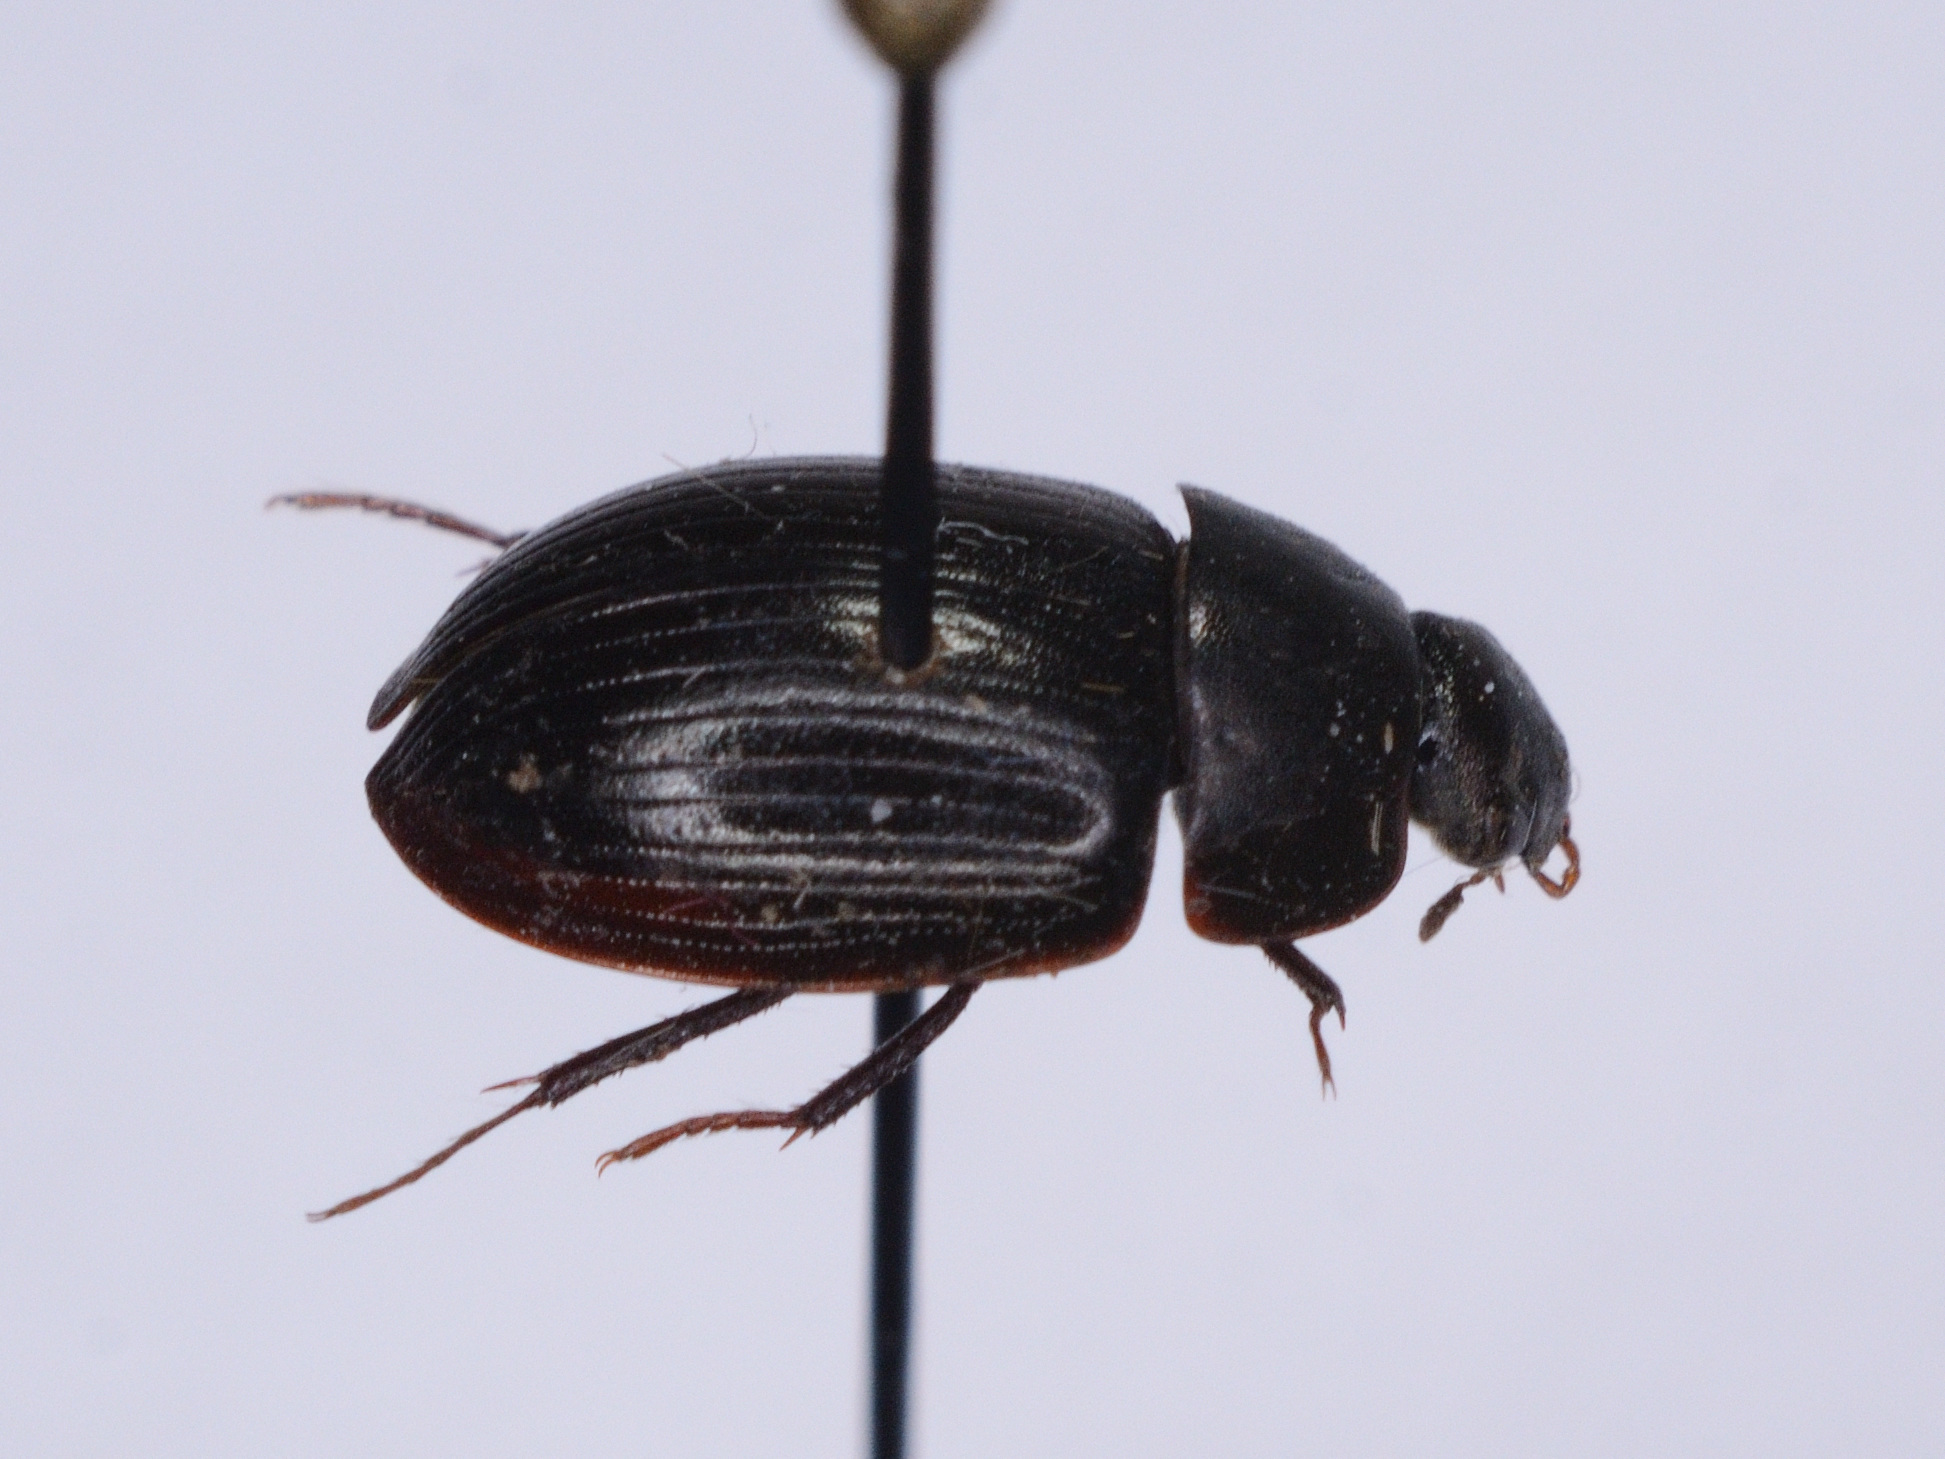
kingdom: Animalia
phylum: Arthropoda
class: Insecta
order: Coleoptera
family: Hydrophilidae
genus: Hydrobius
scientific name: Hydrobius
